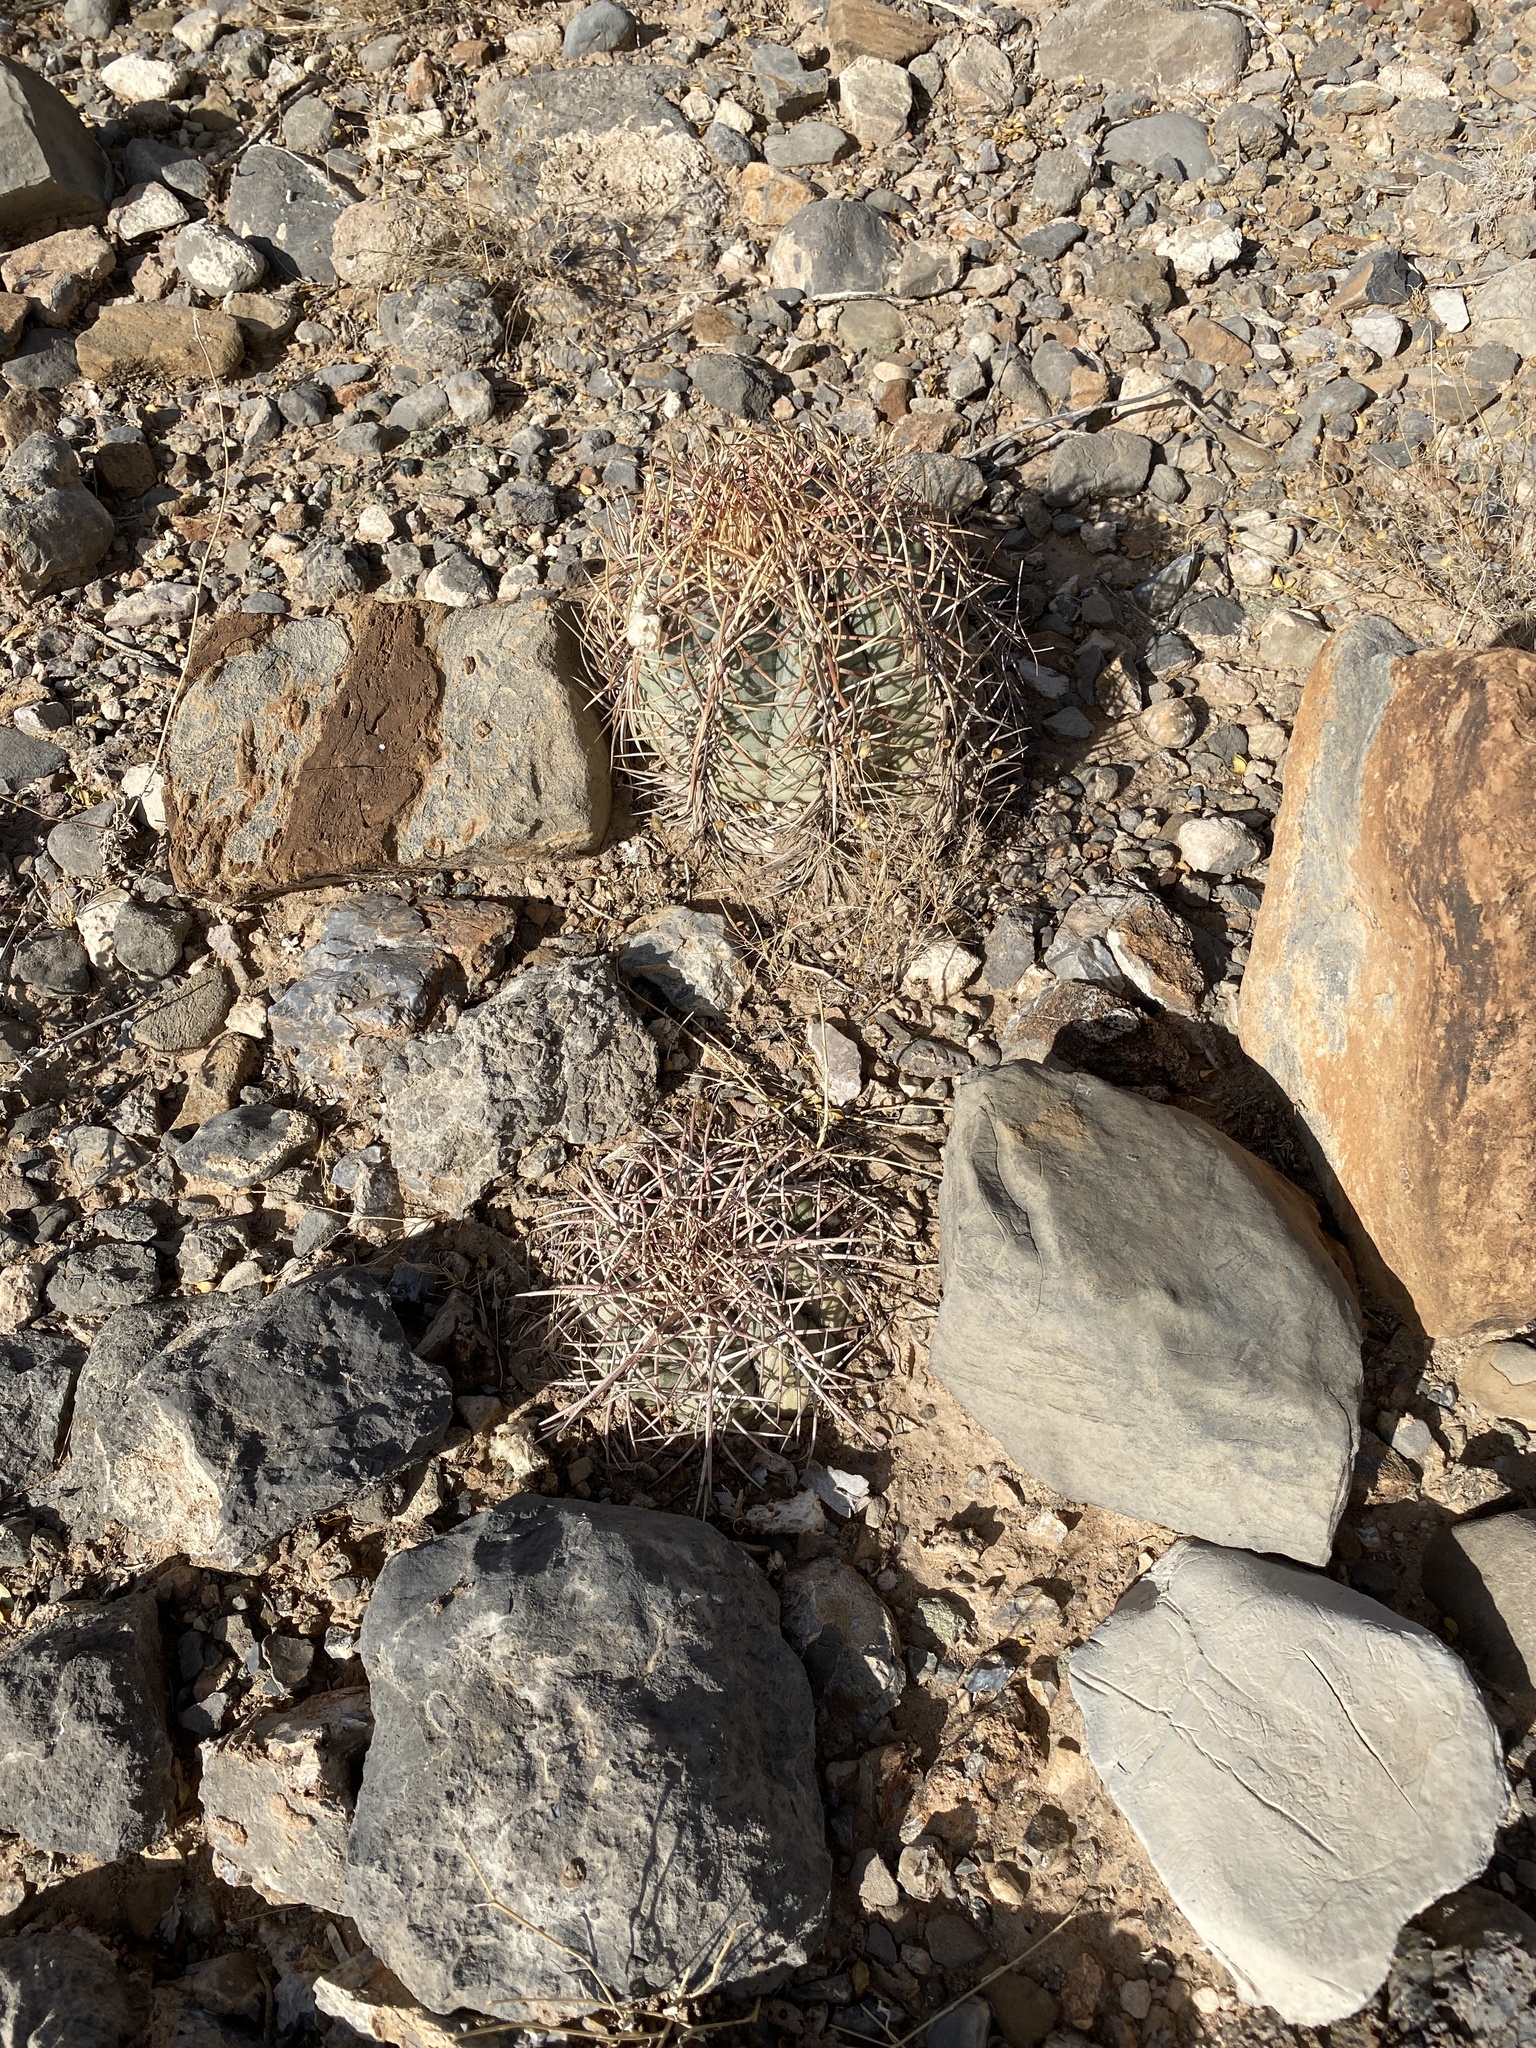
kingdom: Plantae
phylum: Tracheophyta
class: Magnoliopsida
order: Caryophyllales
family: Cactaceae
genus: Echinocactus
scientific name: Echinocactus horizonthalonius
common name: Devilshead
